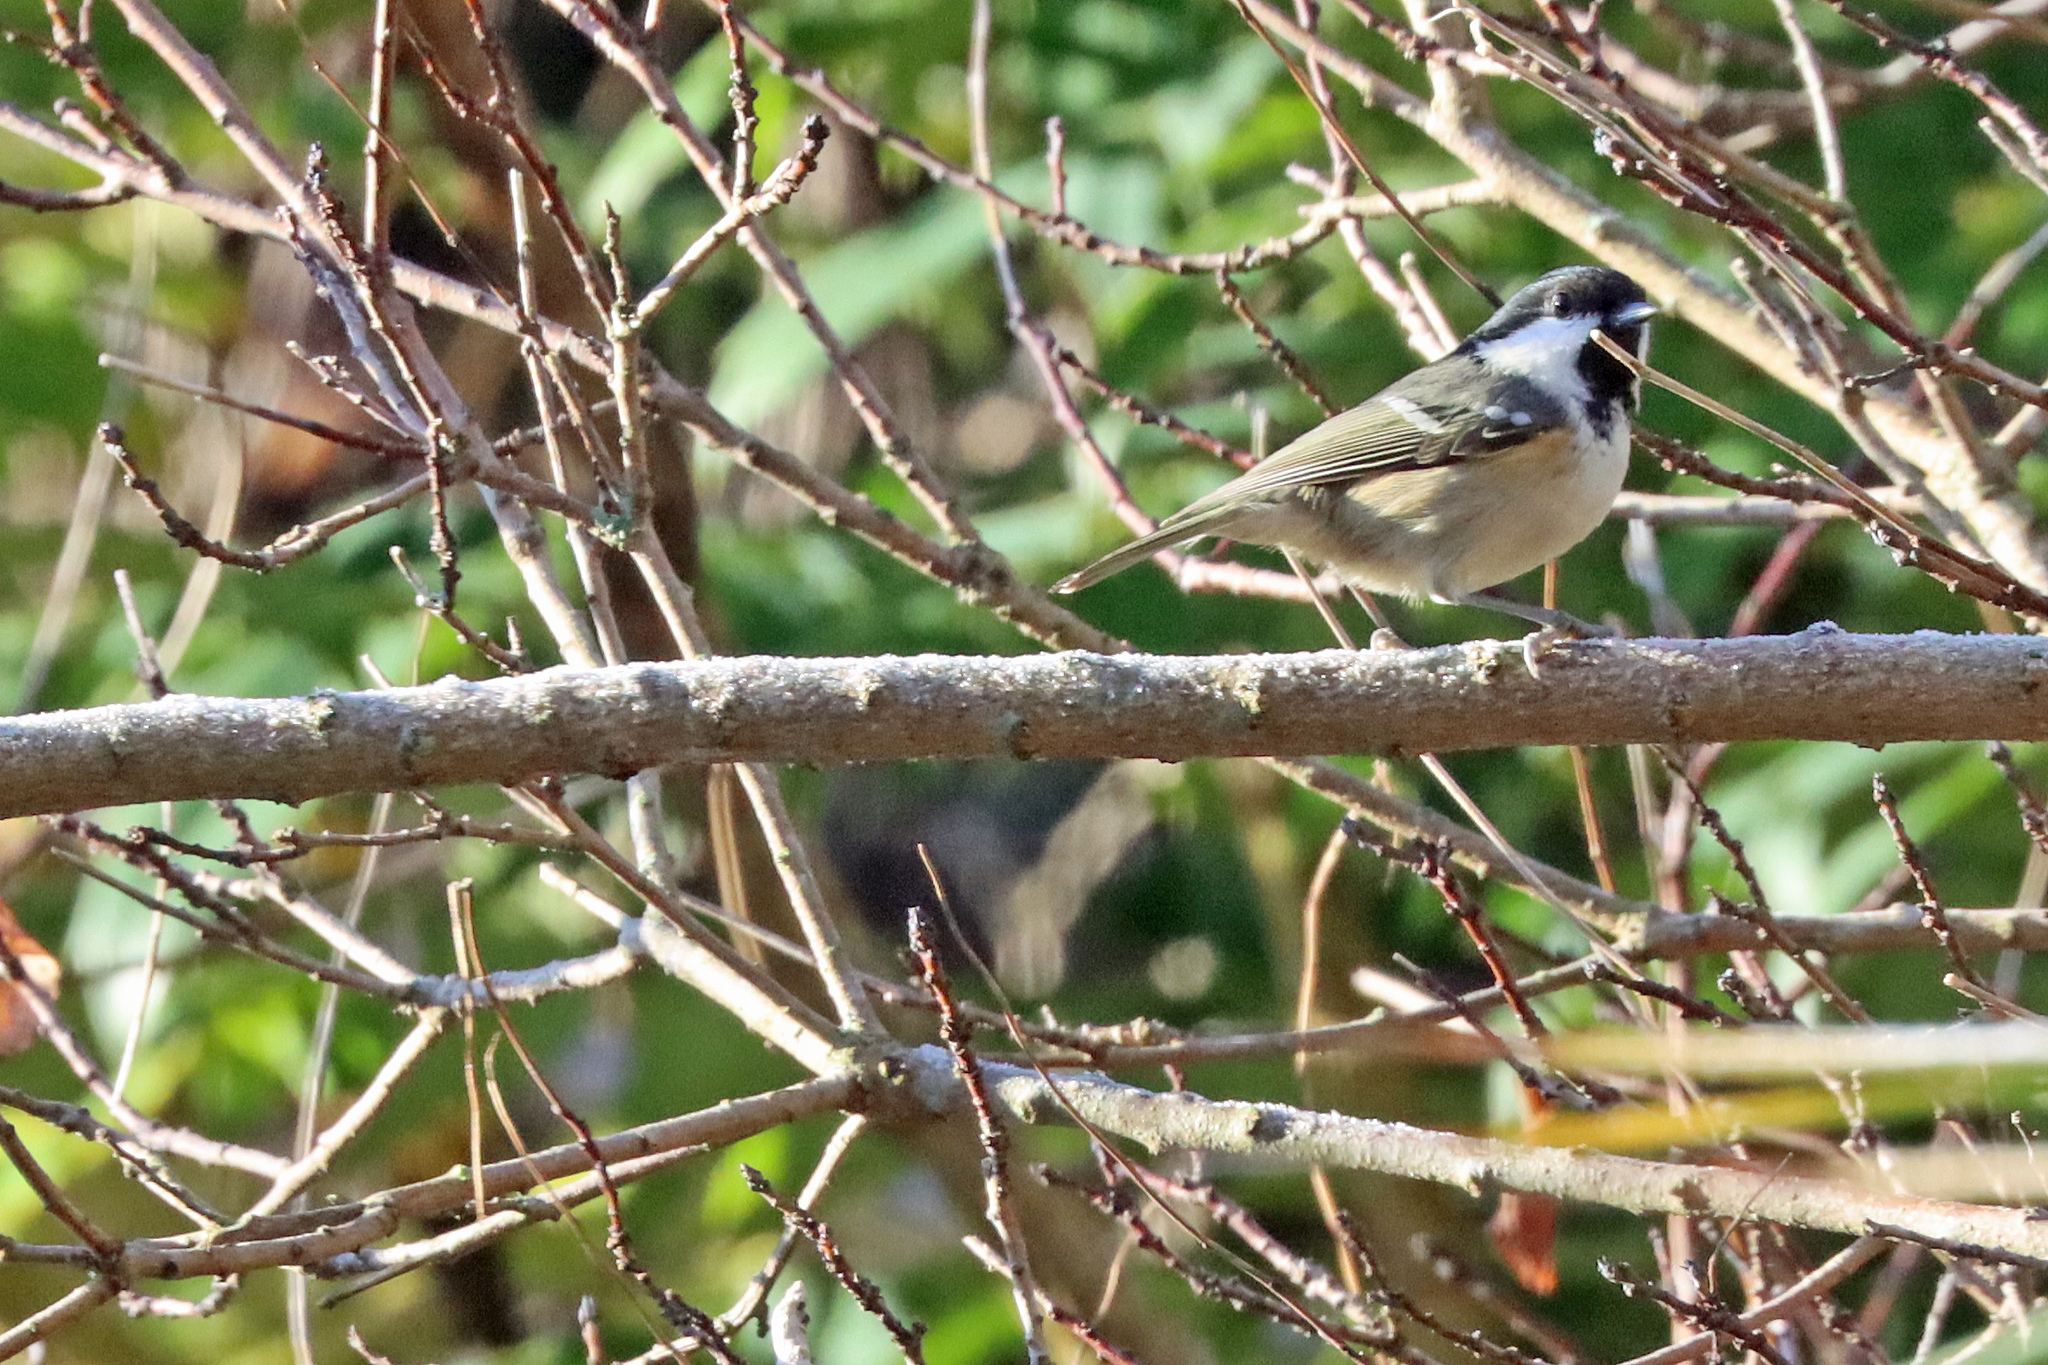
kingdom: Animalia
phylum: Chordata
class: Aves
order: Passeriformes
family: Paridae
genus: Periparus
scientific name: Periparus ater
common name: Coal tit
